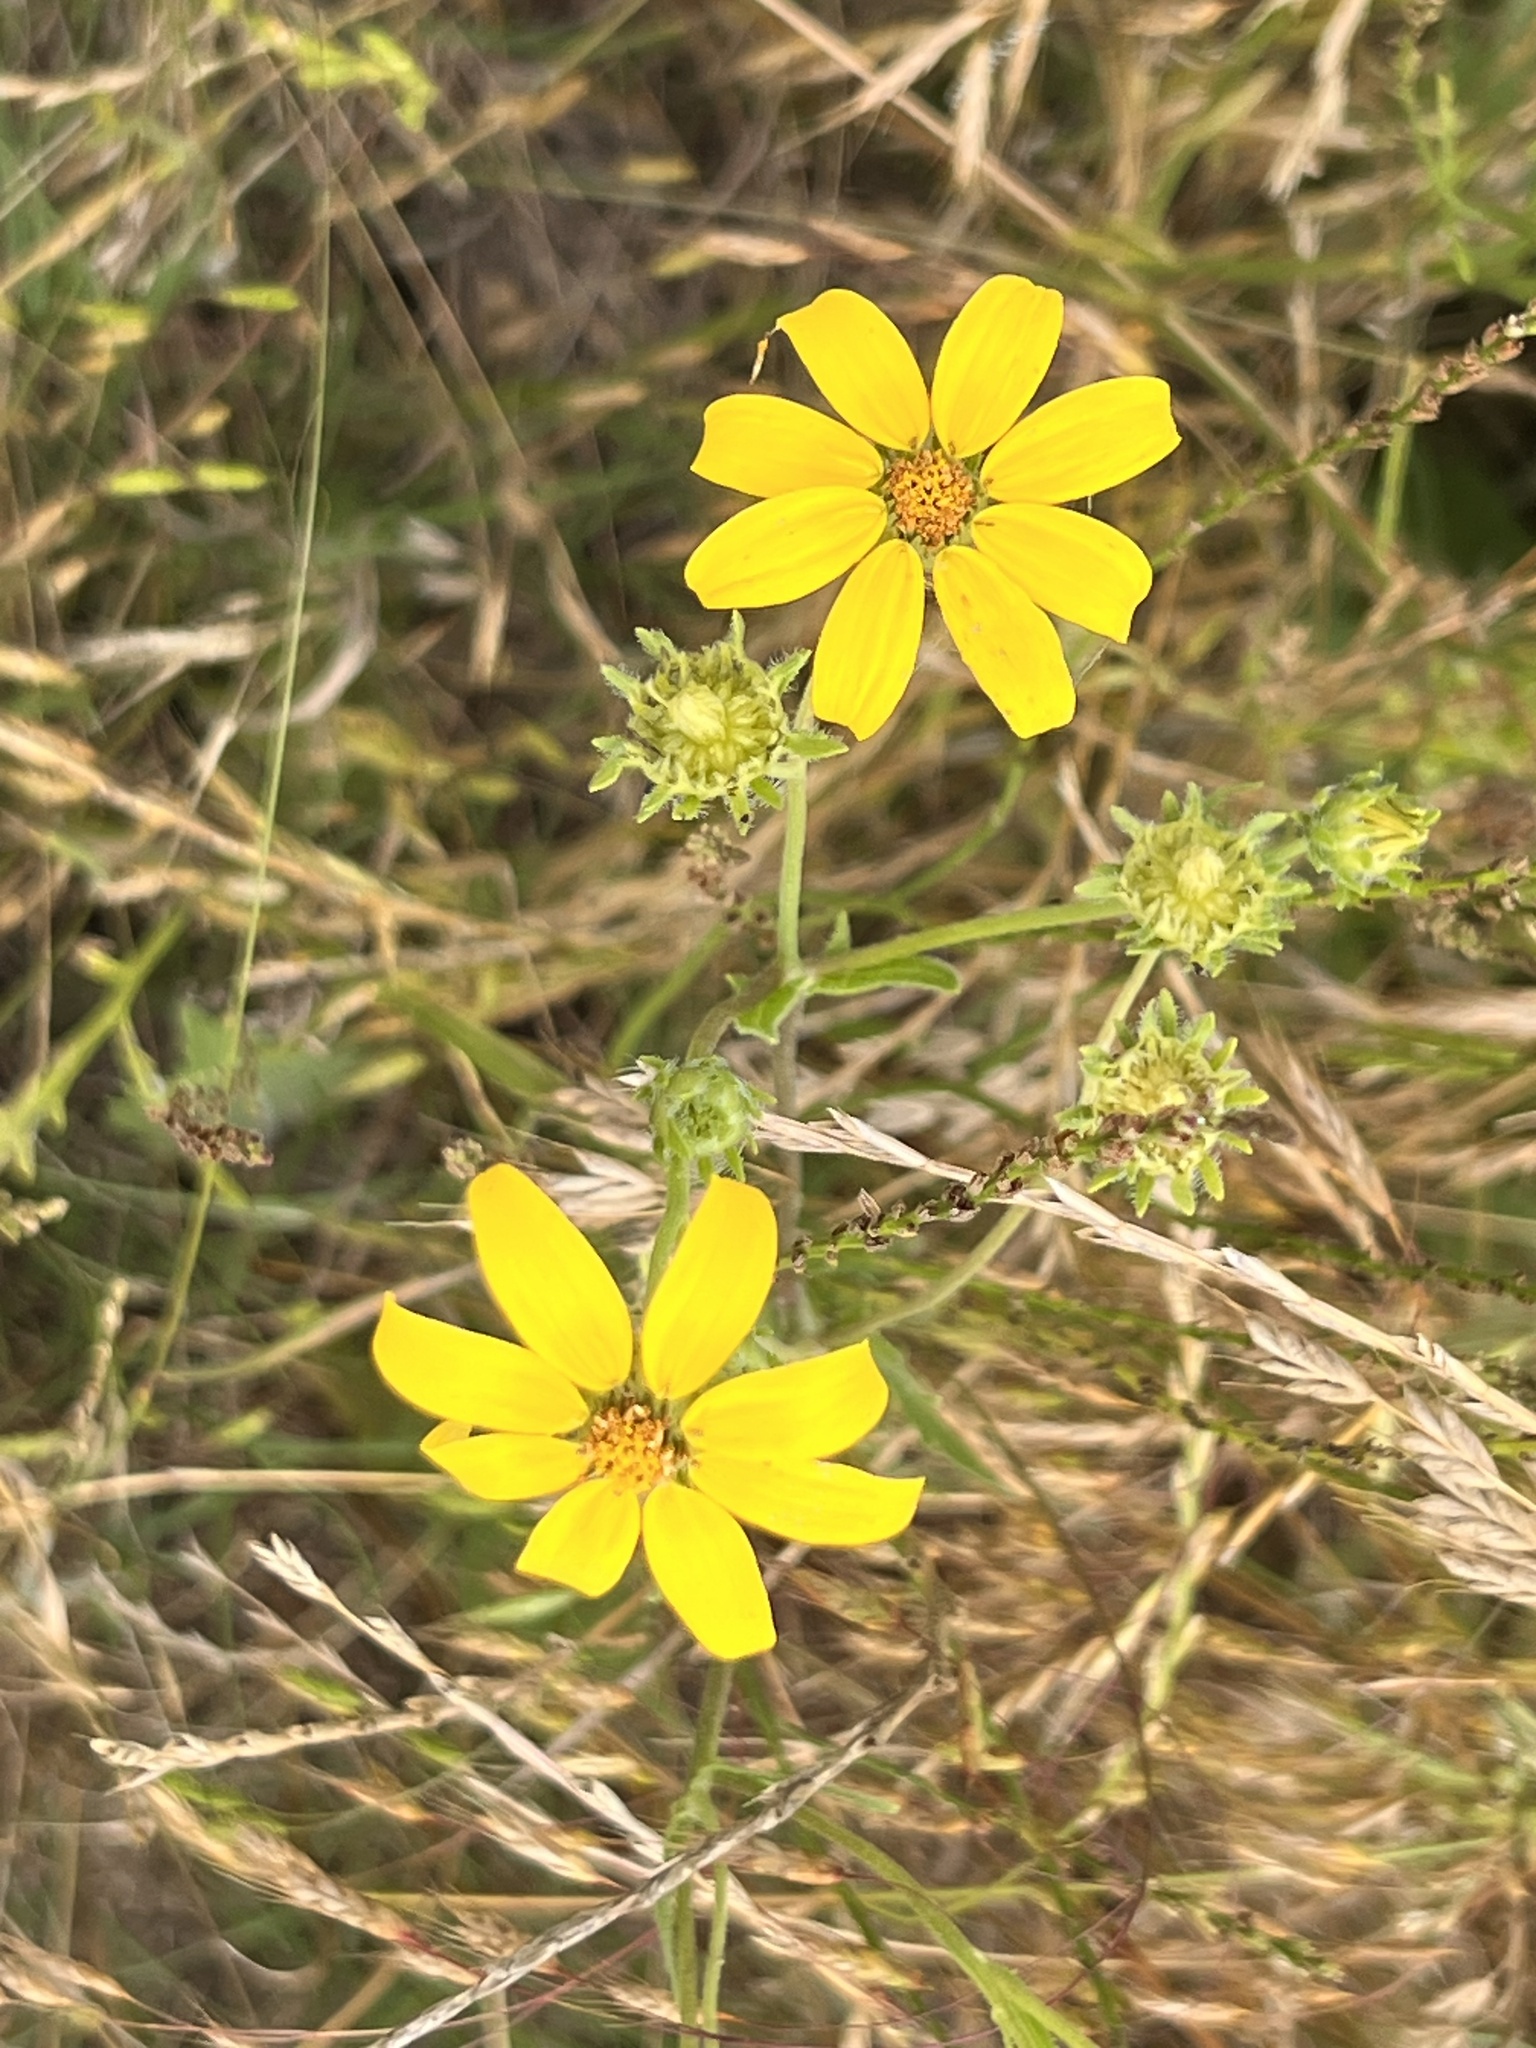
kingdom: Plantae
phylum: Tracheophyta
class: Magnoliopsida
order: Asterales
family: Asteraceae
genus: Engelmannia
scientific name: Engelmannia peristenia
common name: Engelmann's daisy
